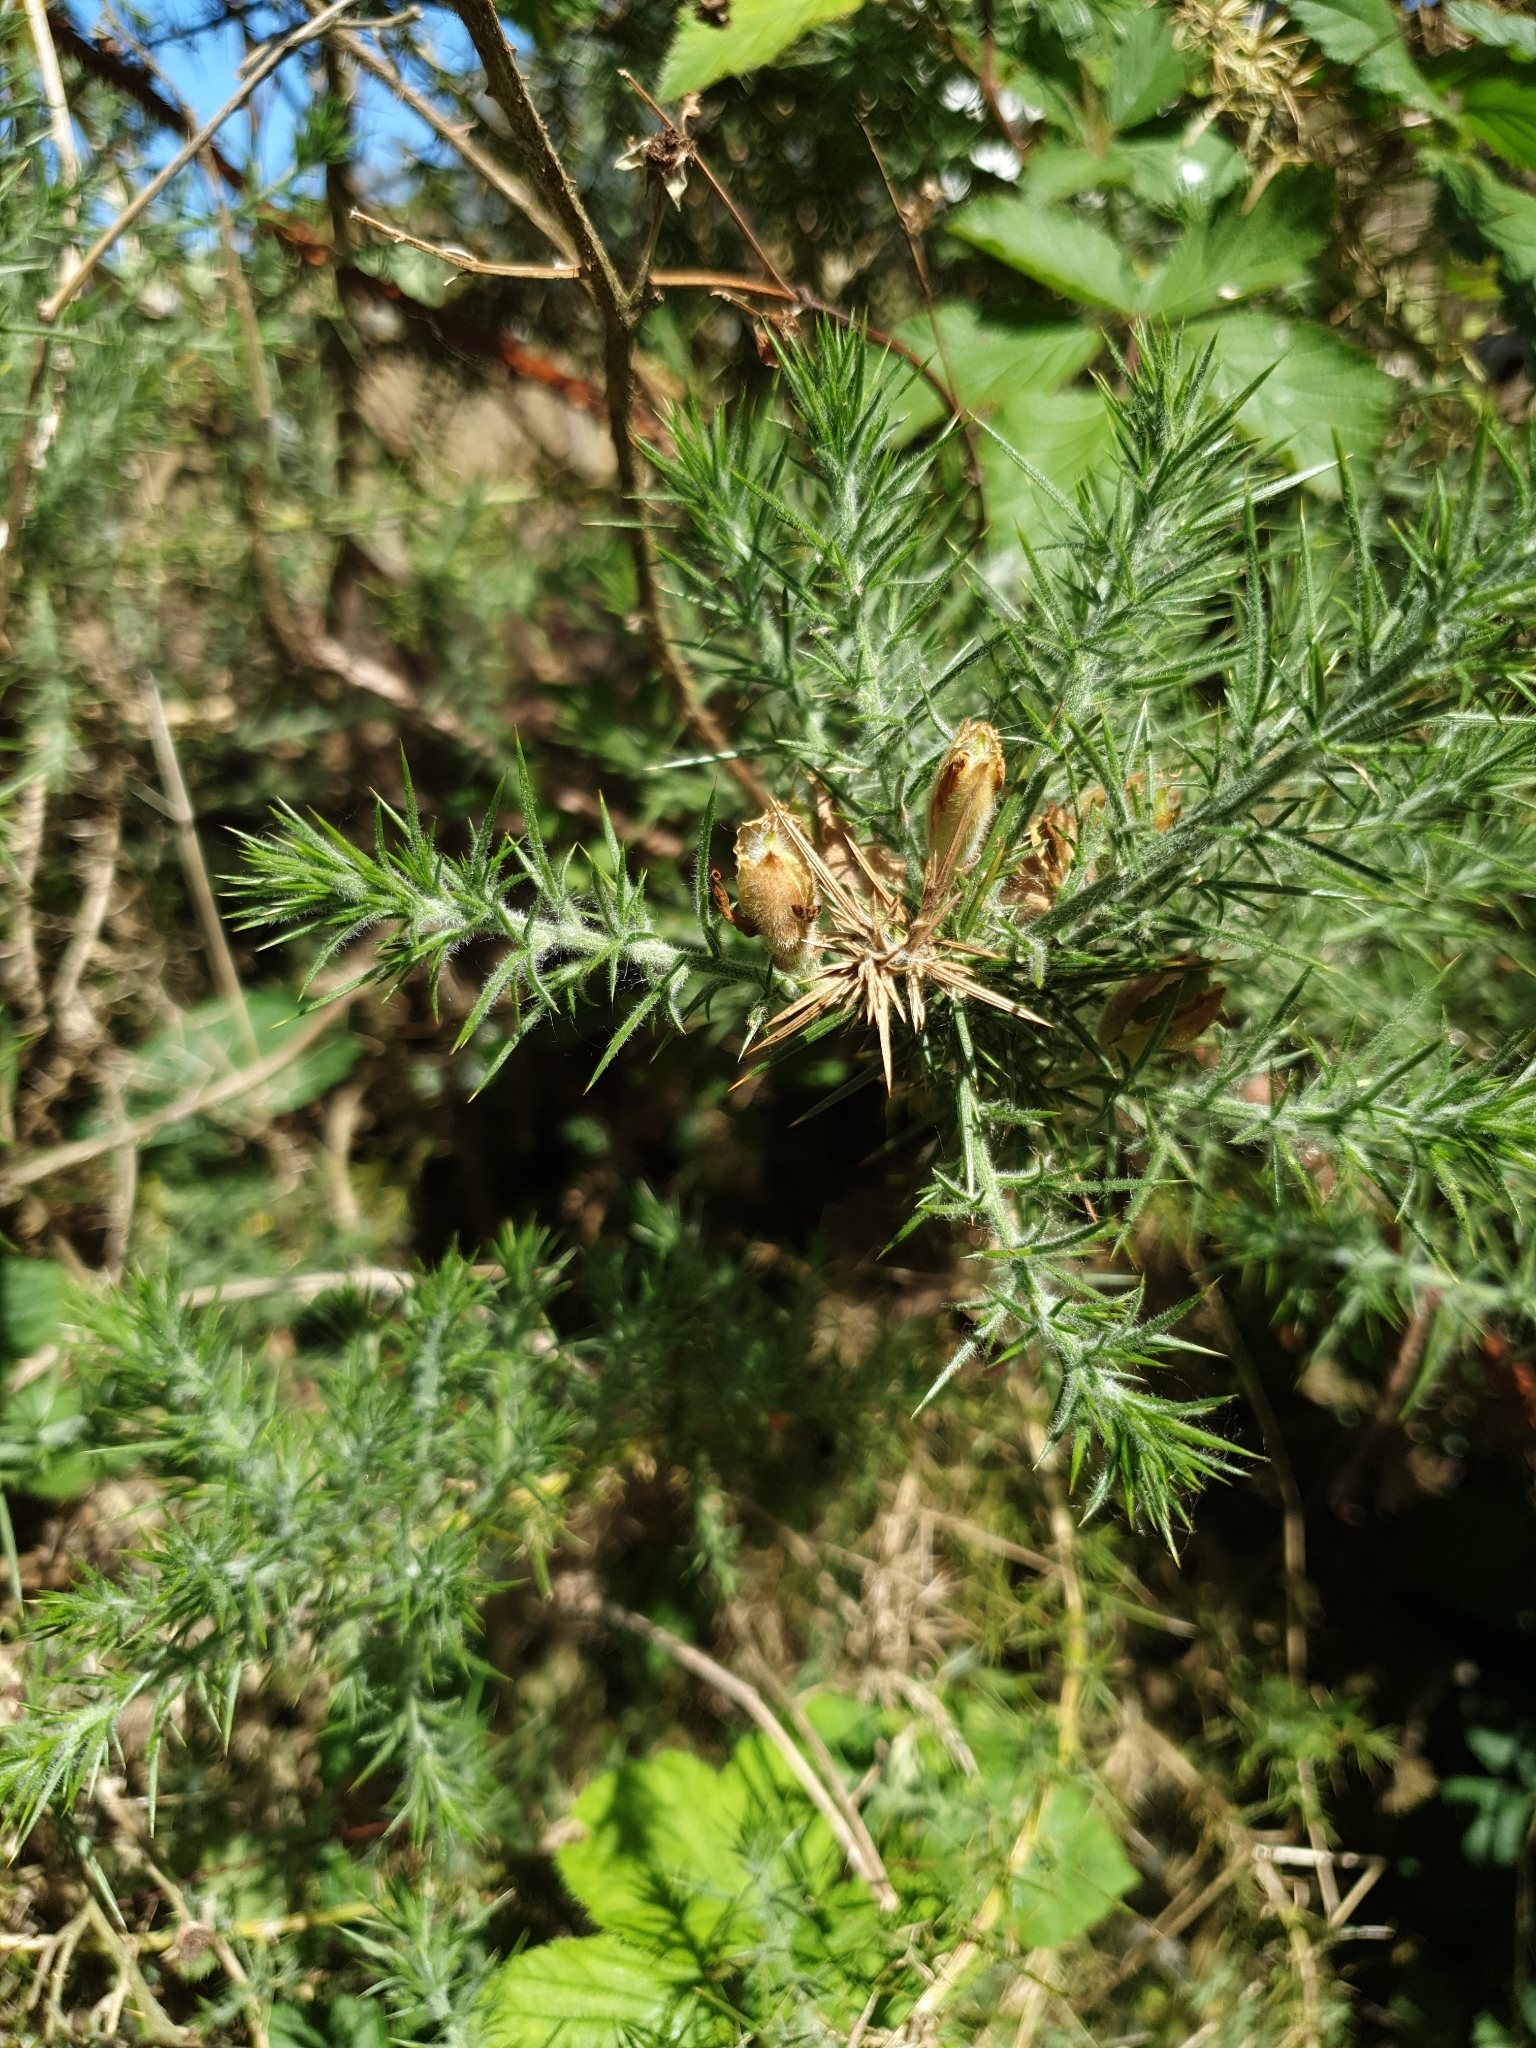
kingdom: Plantae
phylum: Tracheophyta
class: Magnoliopsida
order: Fabales
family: Fabaceae
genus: Ulex
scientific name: Ulex europaeus
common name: Common gorse
